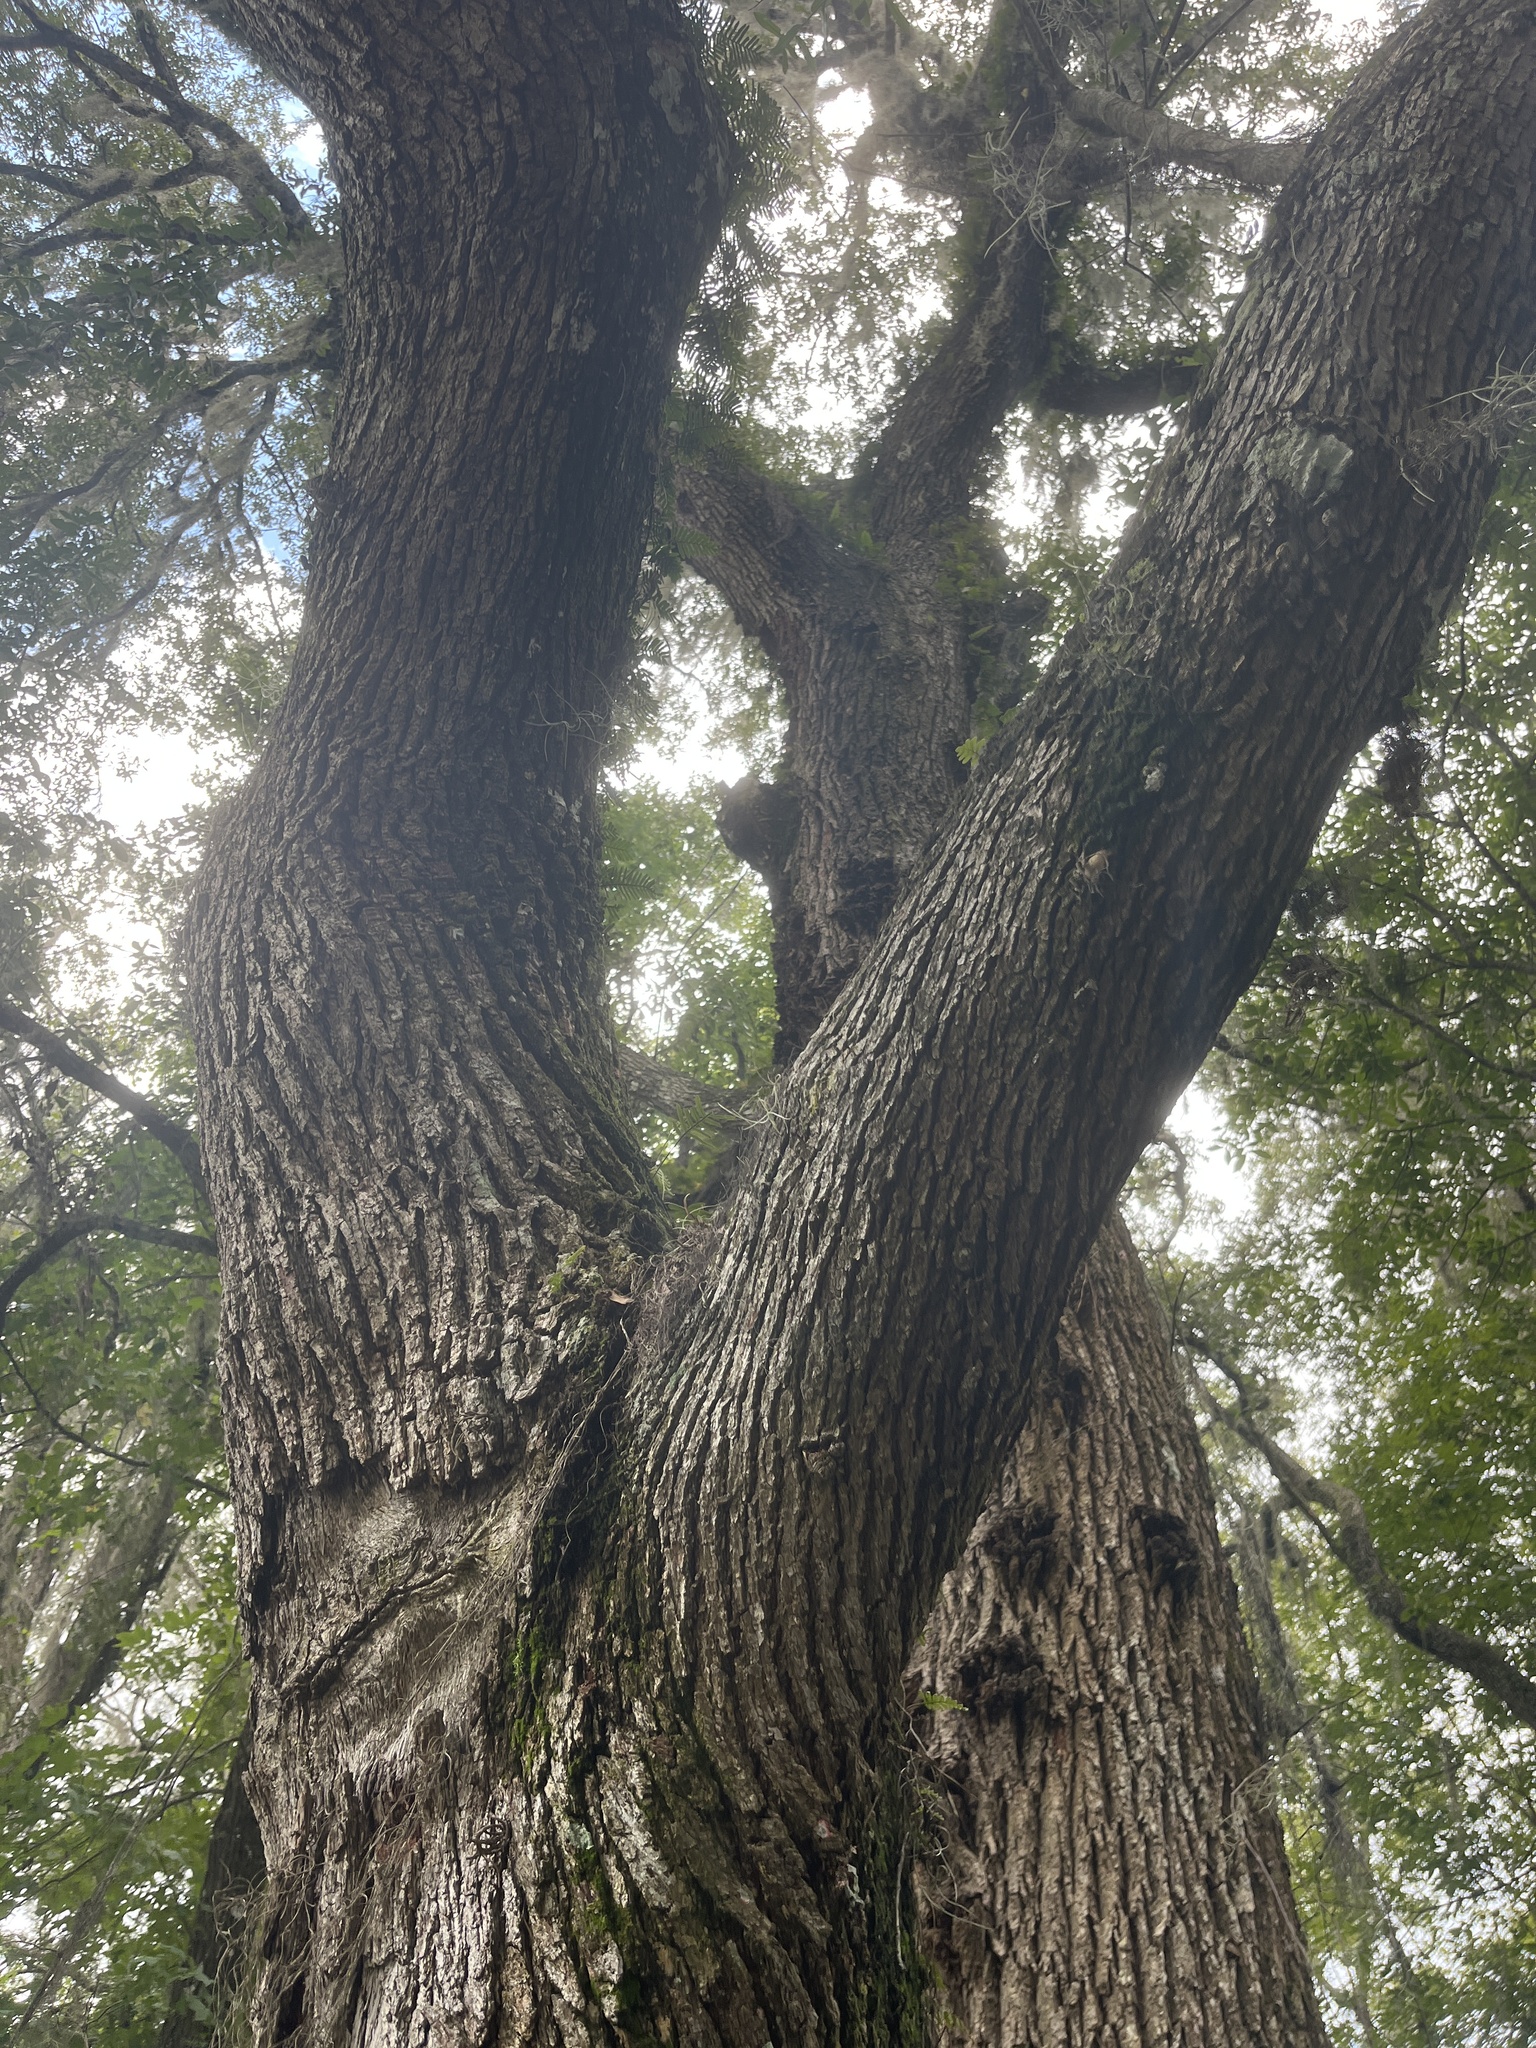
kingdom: Plantae
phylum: Tracheophyta
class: Magnoliopsida
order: Fagales
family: Fagaceae
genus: Quercus
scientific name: Quercus virginiana
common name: Southern live oak
